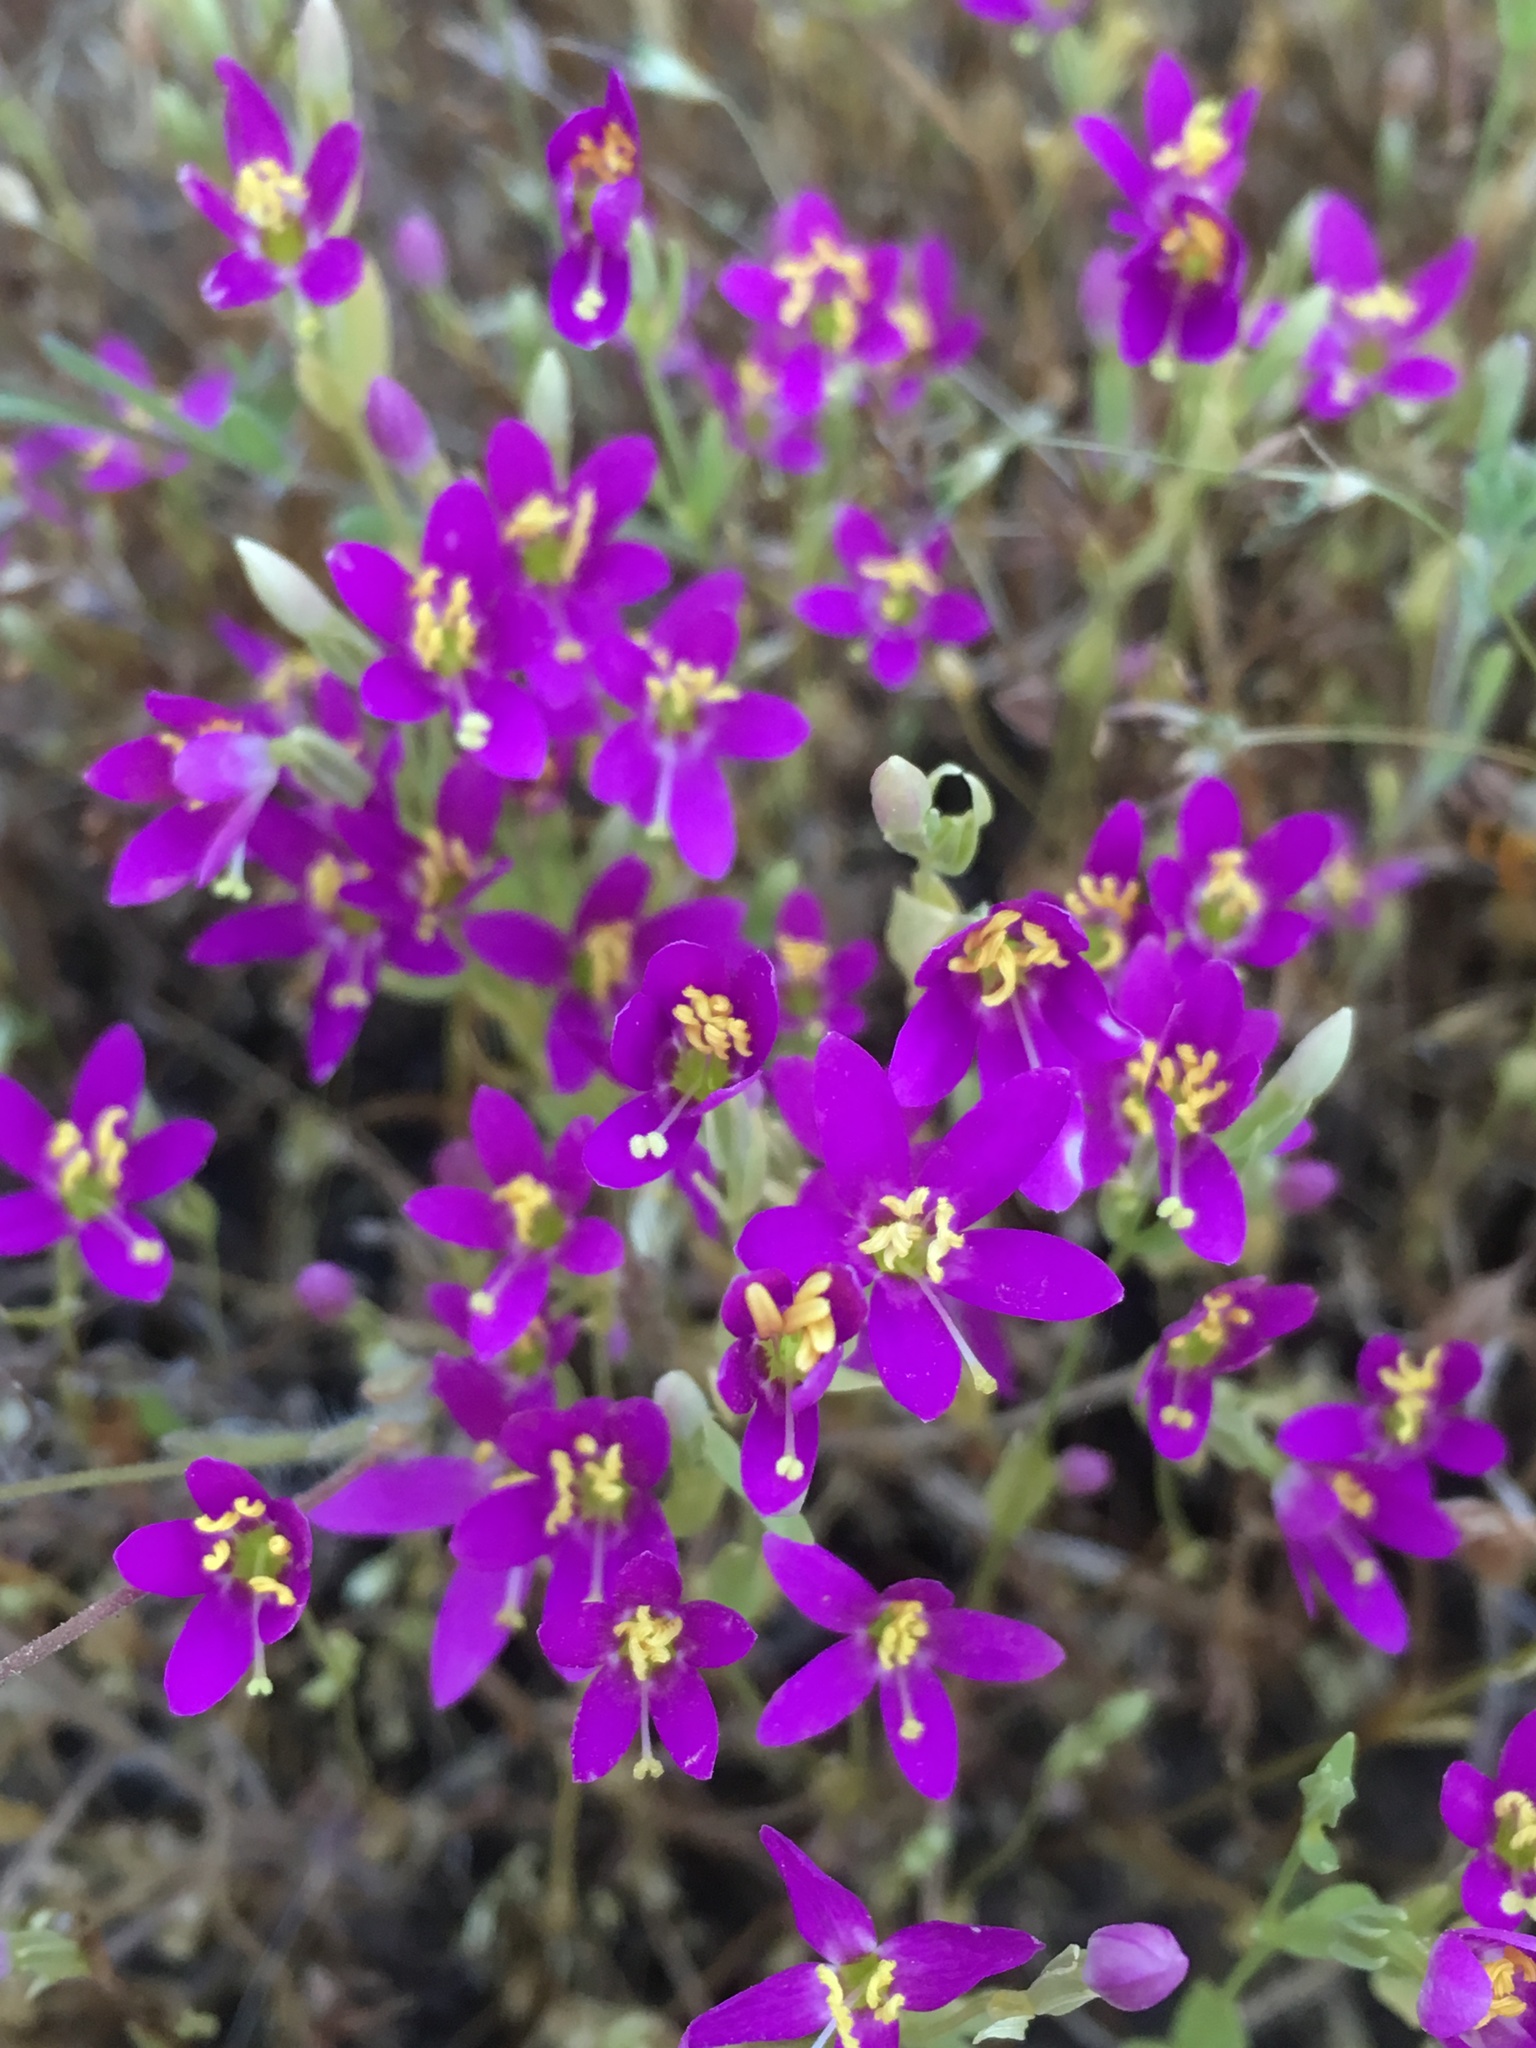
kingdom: Plantae
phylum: Tracheophyta
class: Magnoliopsida
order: Gentianales
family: Gentianaceae
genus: Zeltnera
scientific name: Zeltnera venusta
